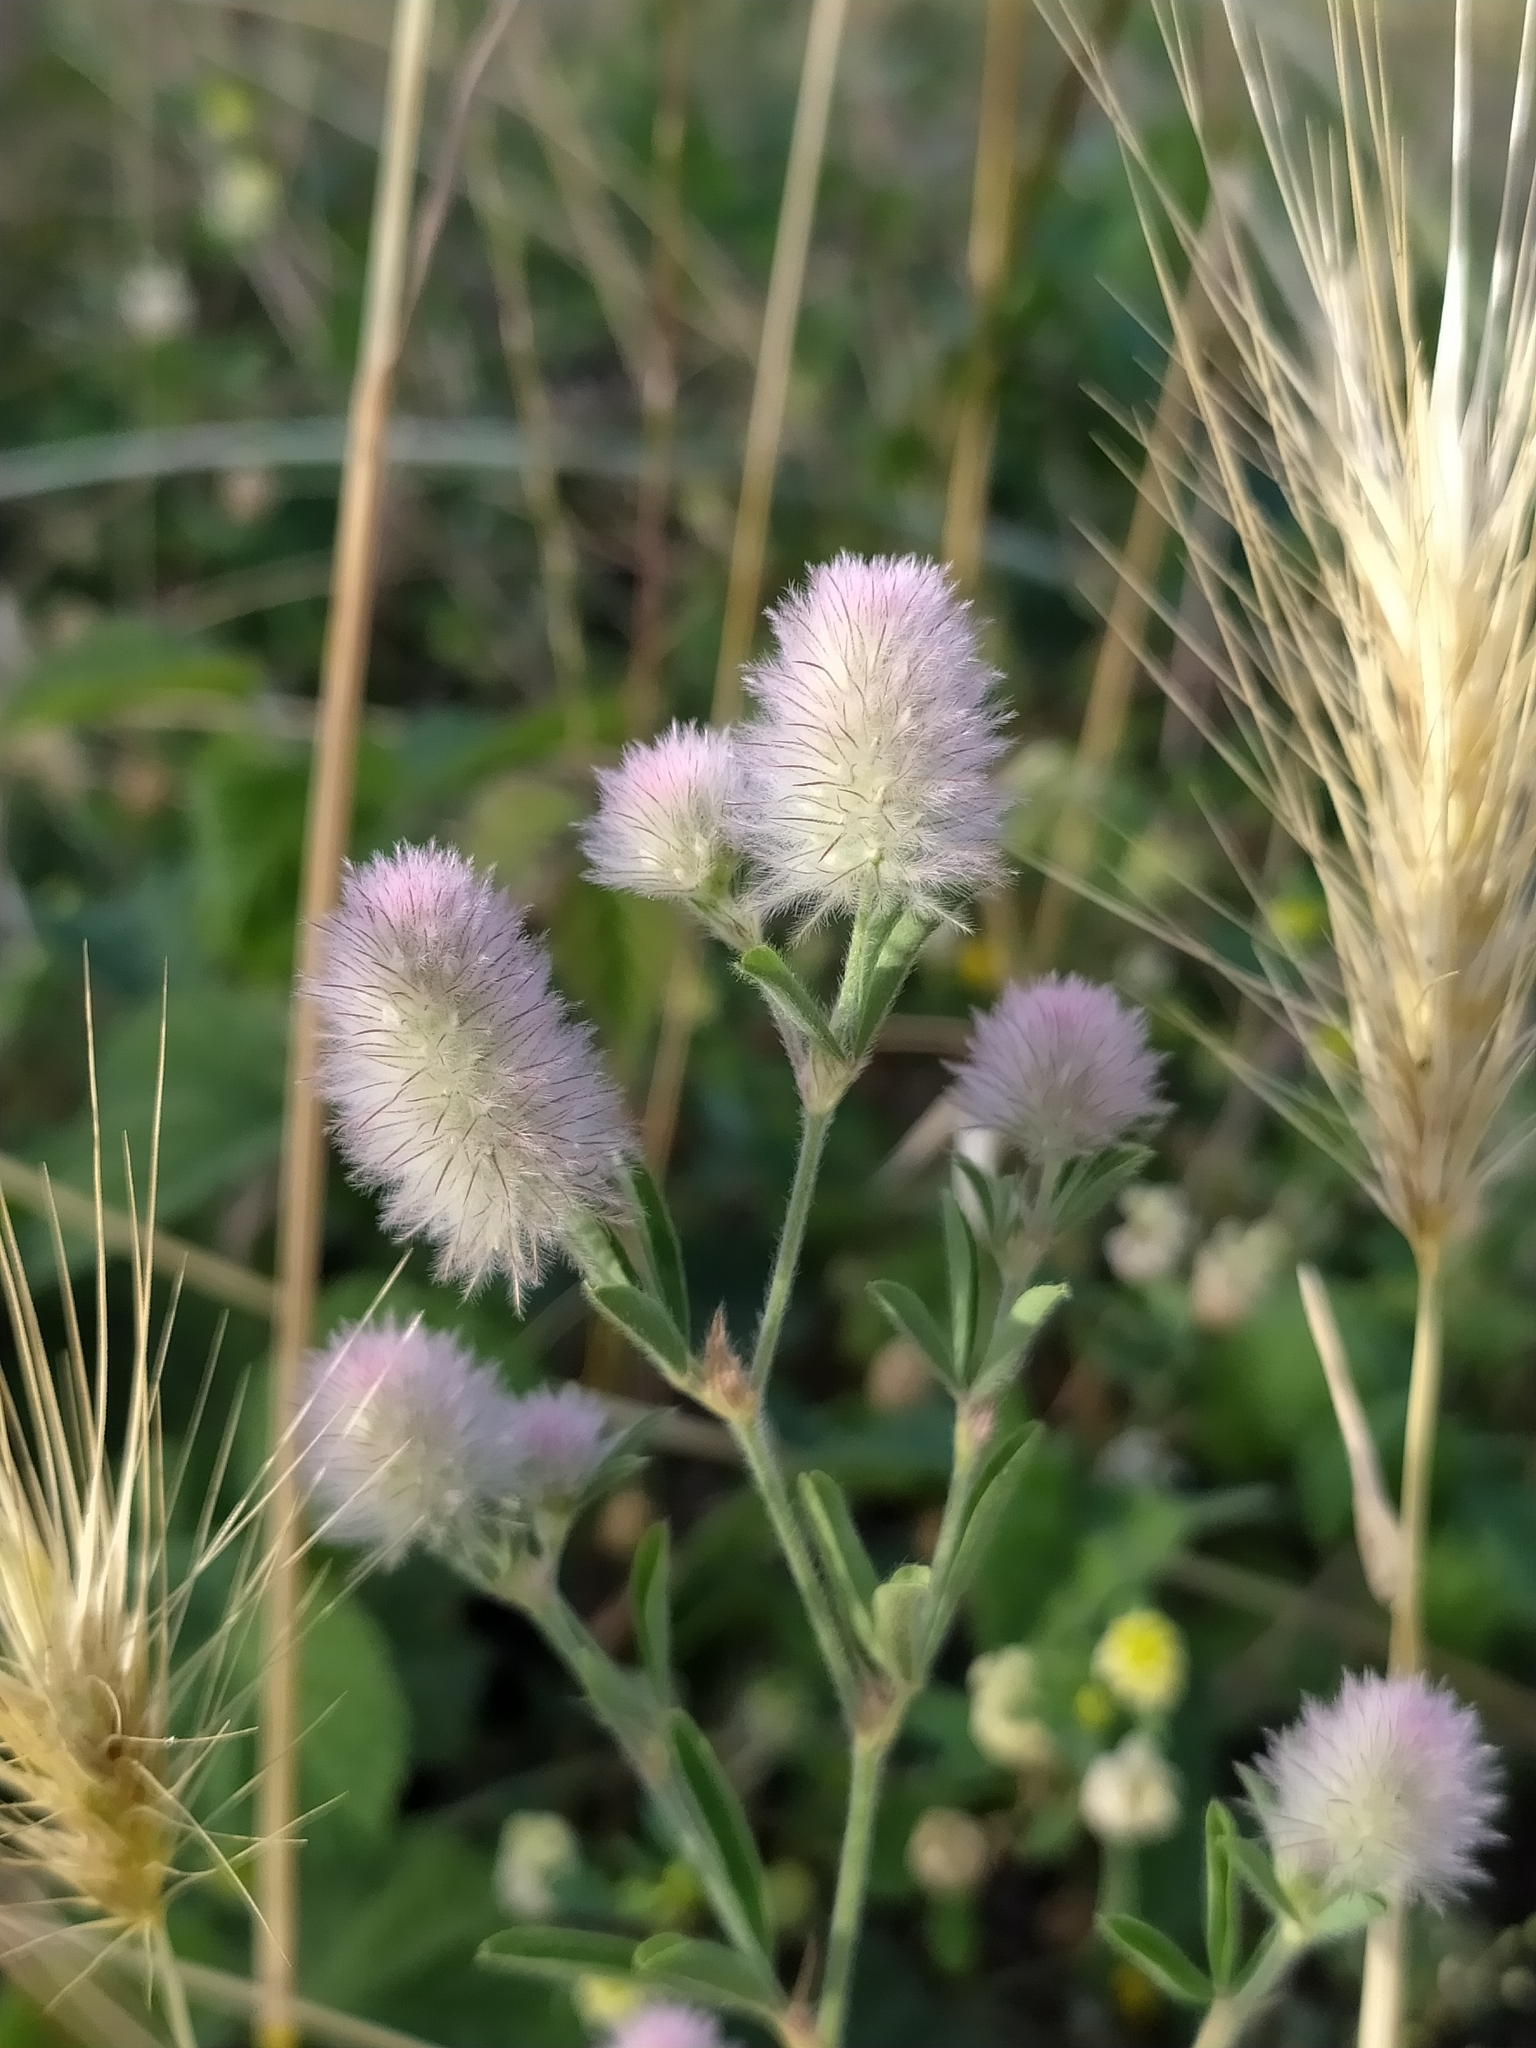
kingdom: Plantae
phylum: Tracheophyta
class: Magnoliopsida
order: Fabales
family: Fabaceae
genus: Trifolium
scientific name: Trifolium arvense
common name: Hare's-foot clover
